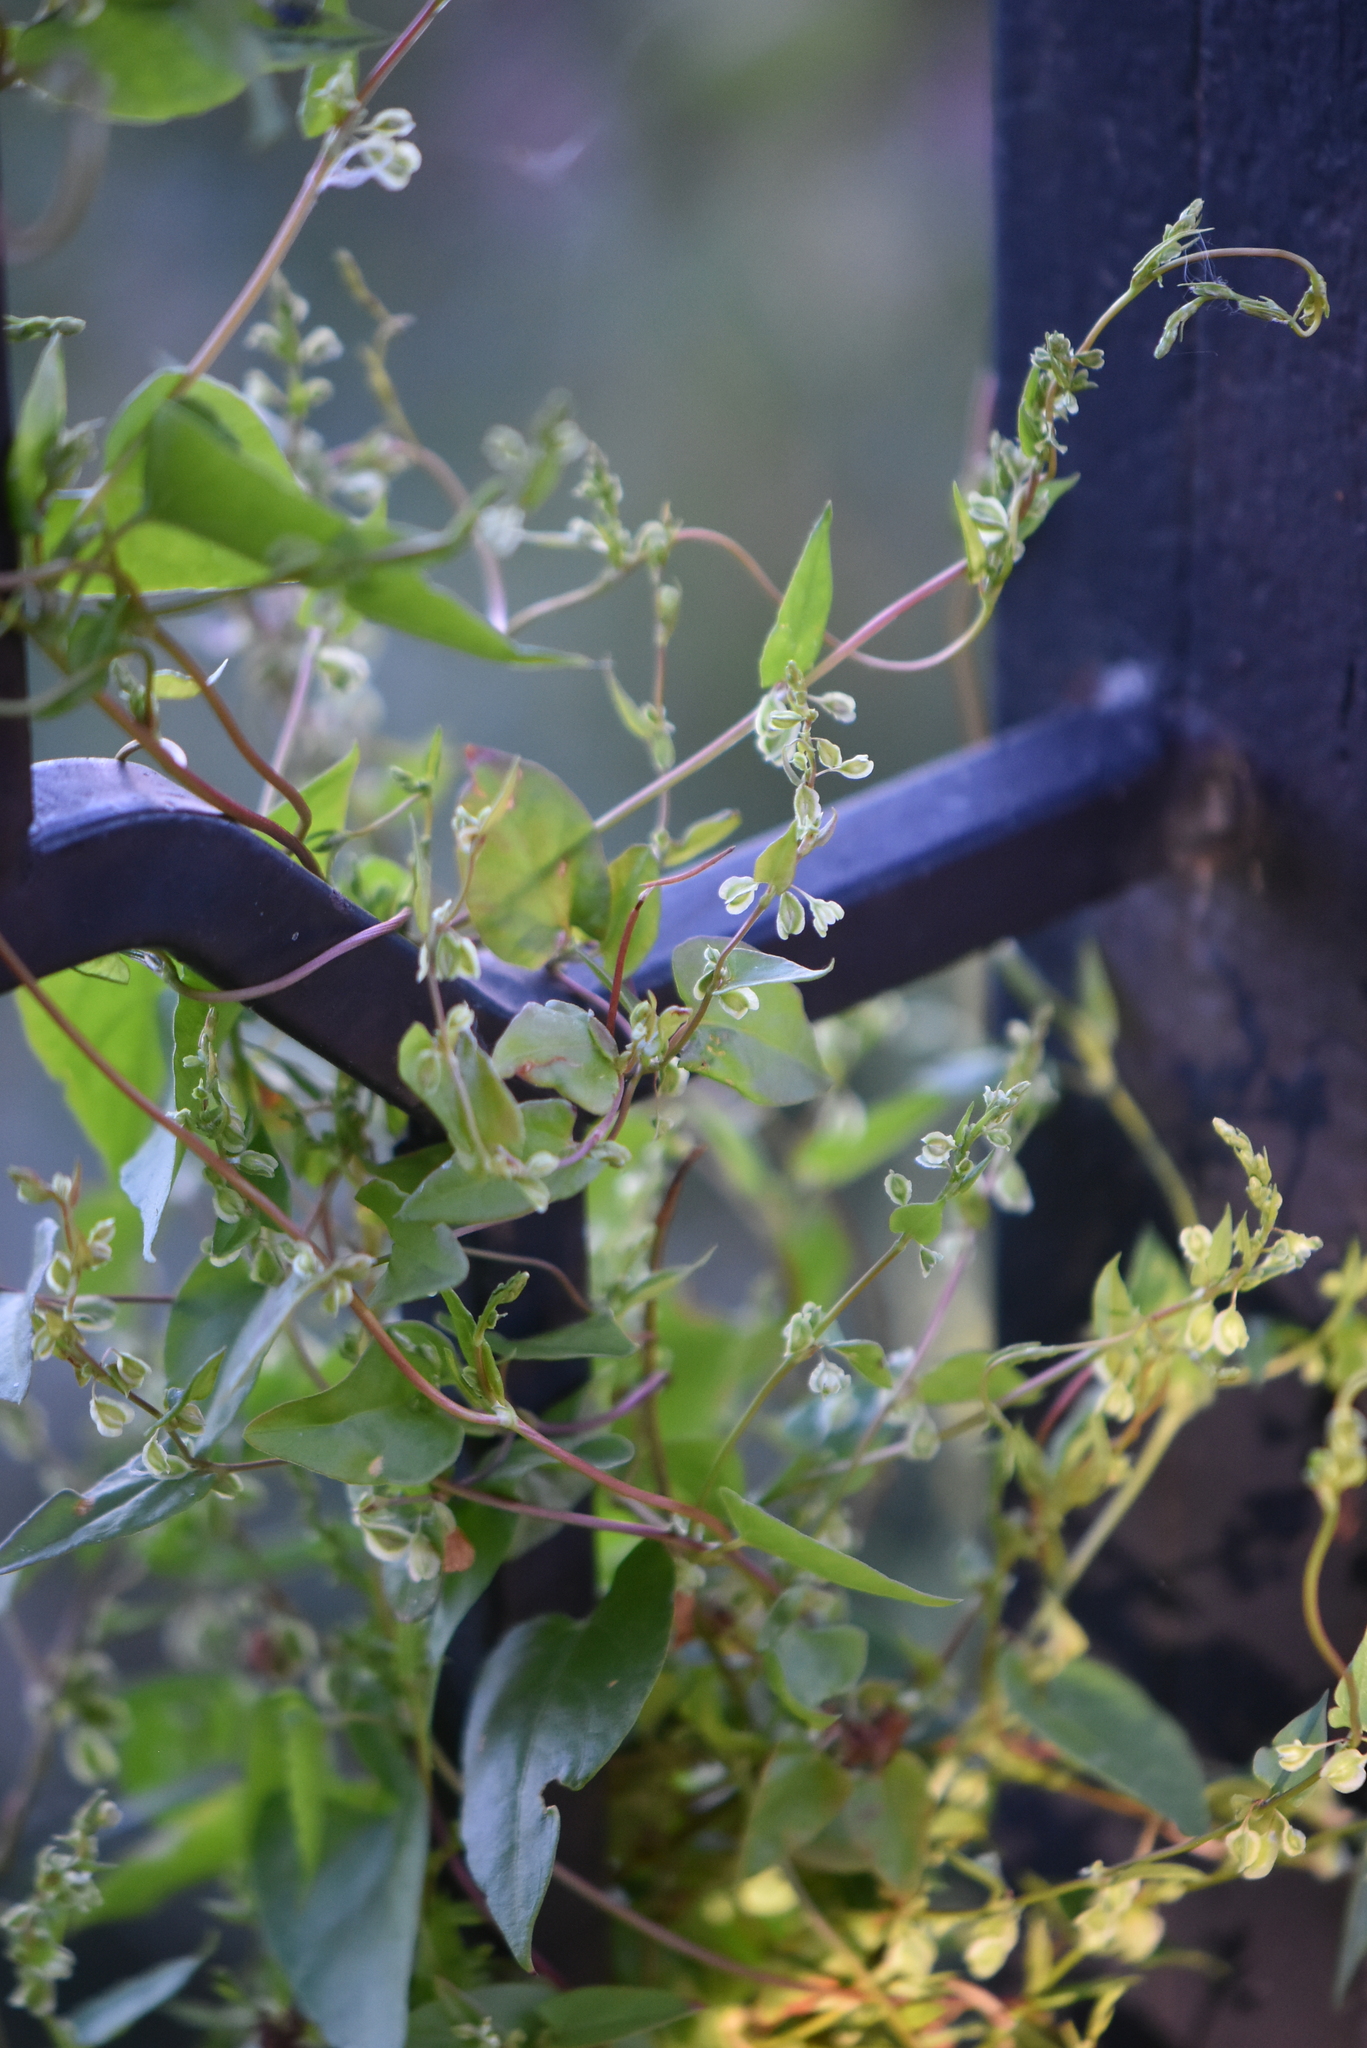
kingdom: Plantae
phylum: Tracheophyta
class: Magnoliopsida
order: Caryophyllales
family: Polygonaceae
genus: Fallopia
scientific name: Fallopia dumetorum
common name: Copse-bindweed
